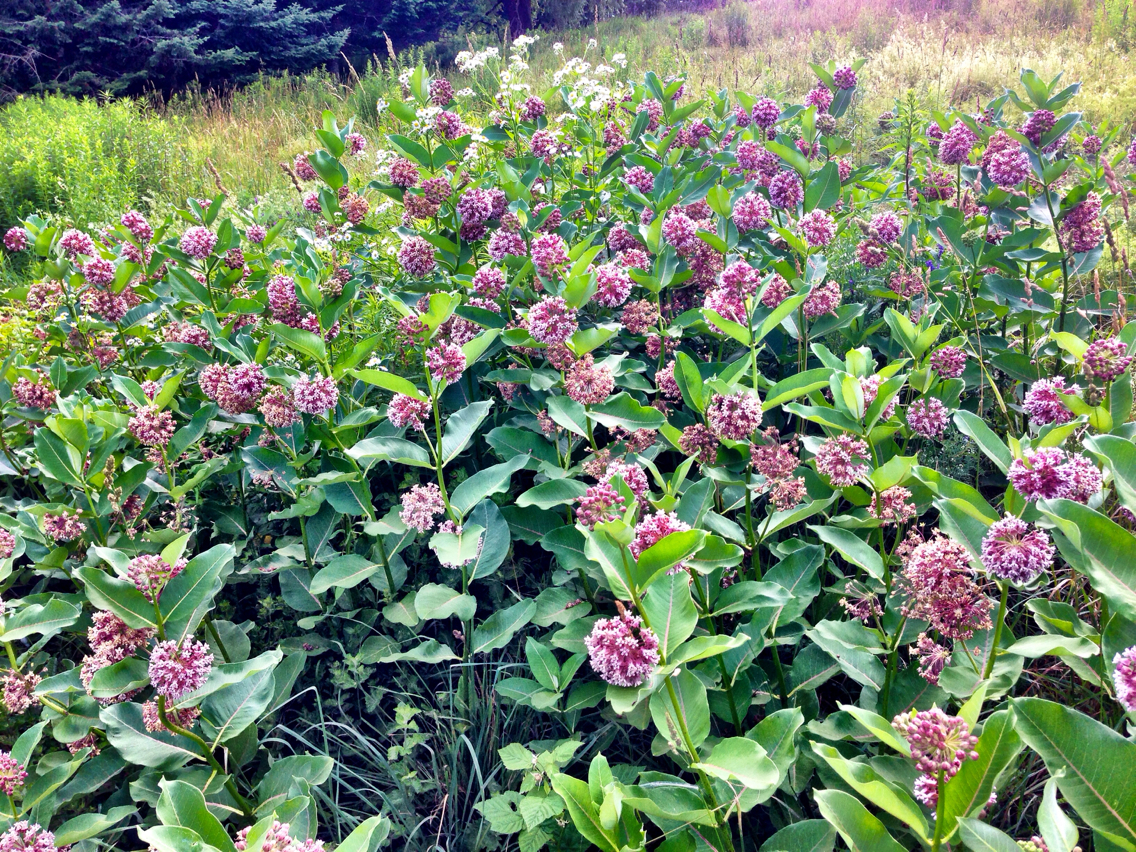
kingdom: Plantae
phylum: Tracheophyta
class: Magnoliopsida
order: Gentianales
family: Apocynaceae
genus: Asclepias
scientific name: Asclepias syriaca
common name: Common milkweed
